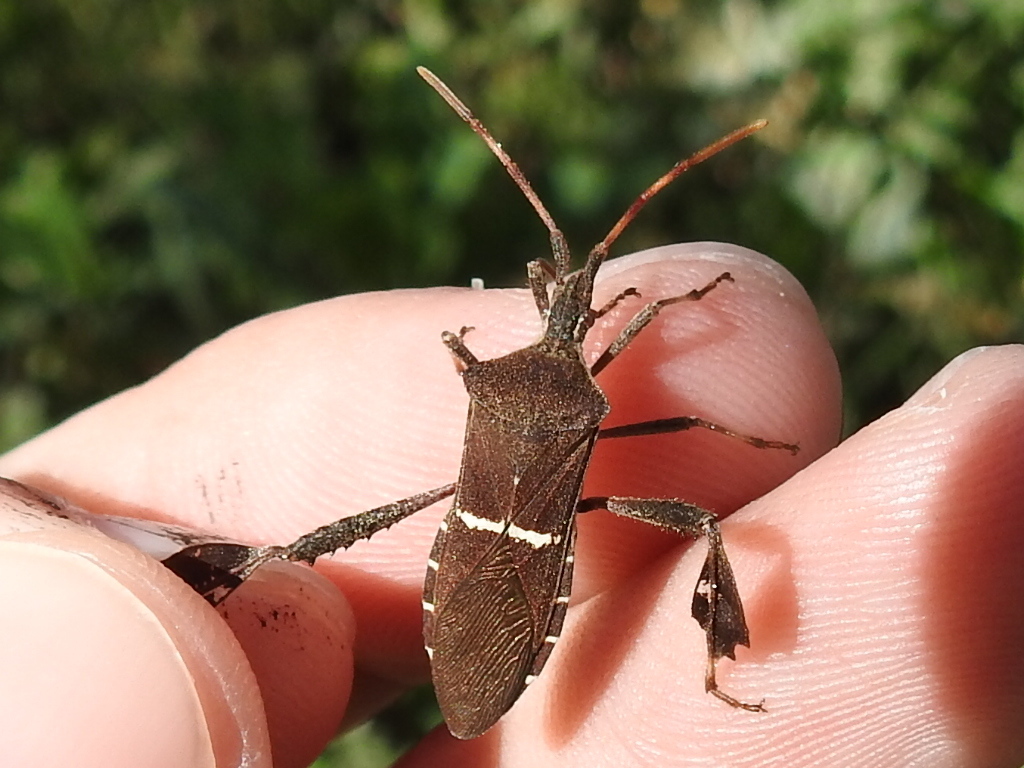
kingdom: Animalia
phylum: Arthropoda
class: Insecta
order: Hemiptera
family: Coreidae
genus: Leptoglossus
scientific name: Leptoglossus phyllopus
